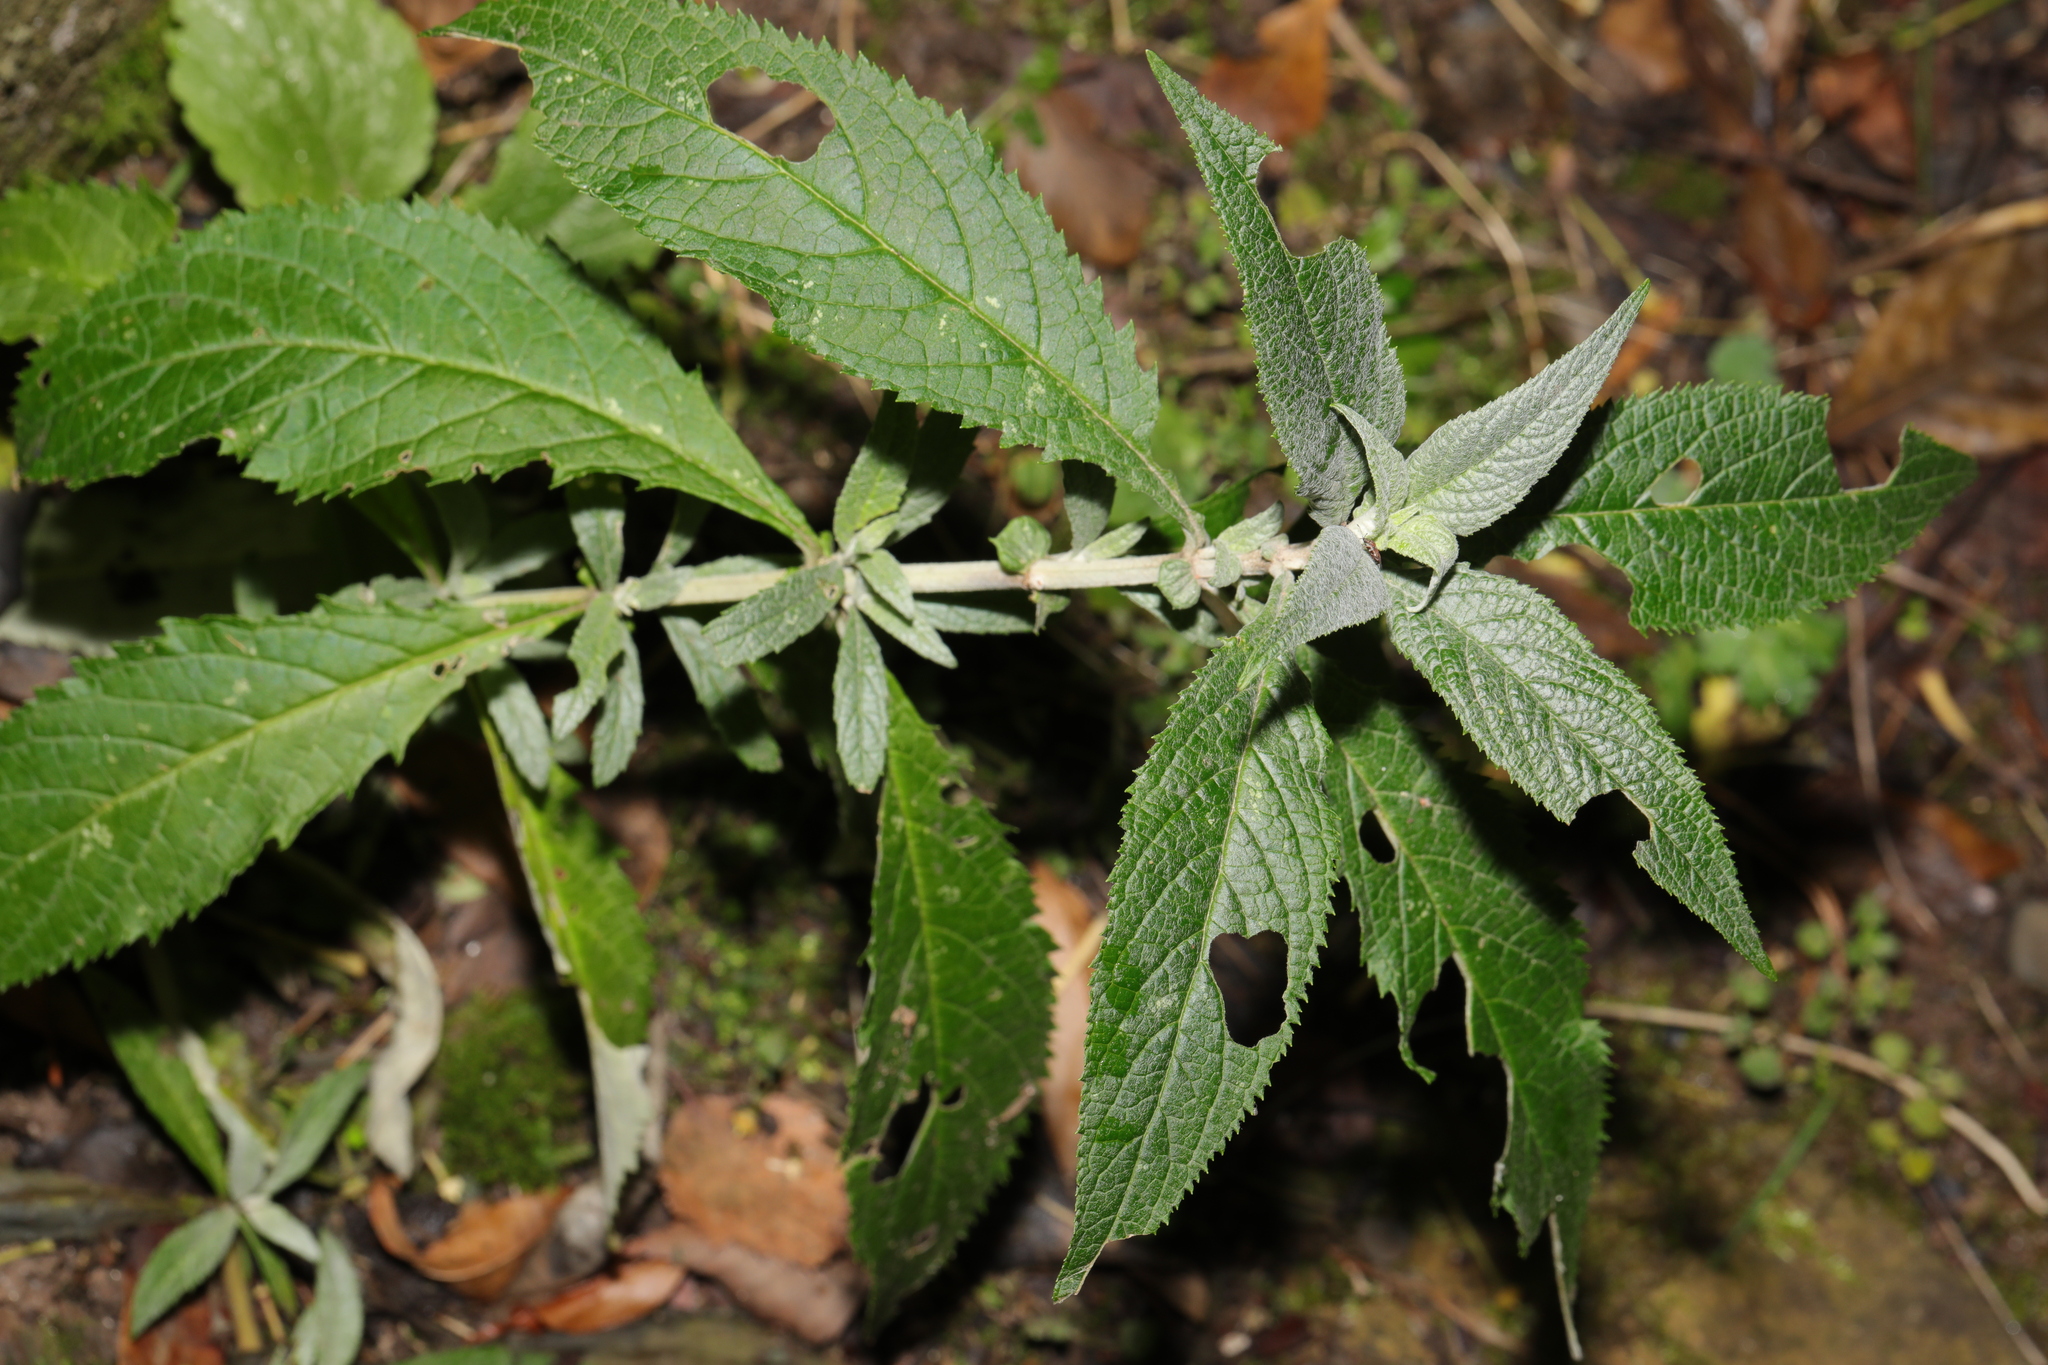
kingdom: Plantae
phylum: Tracheophyta
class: Magnoliopsida
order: Lamiales
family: Scrophulariaceae
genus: Buddleja
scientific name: Buddleja davidii
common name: Butterfly-bush
